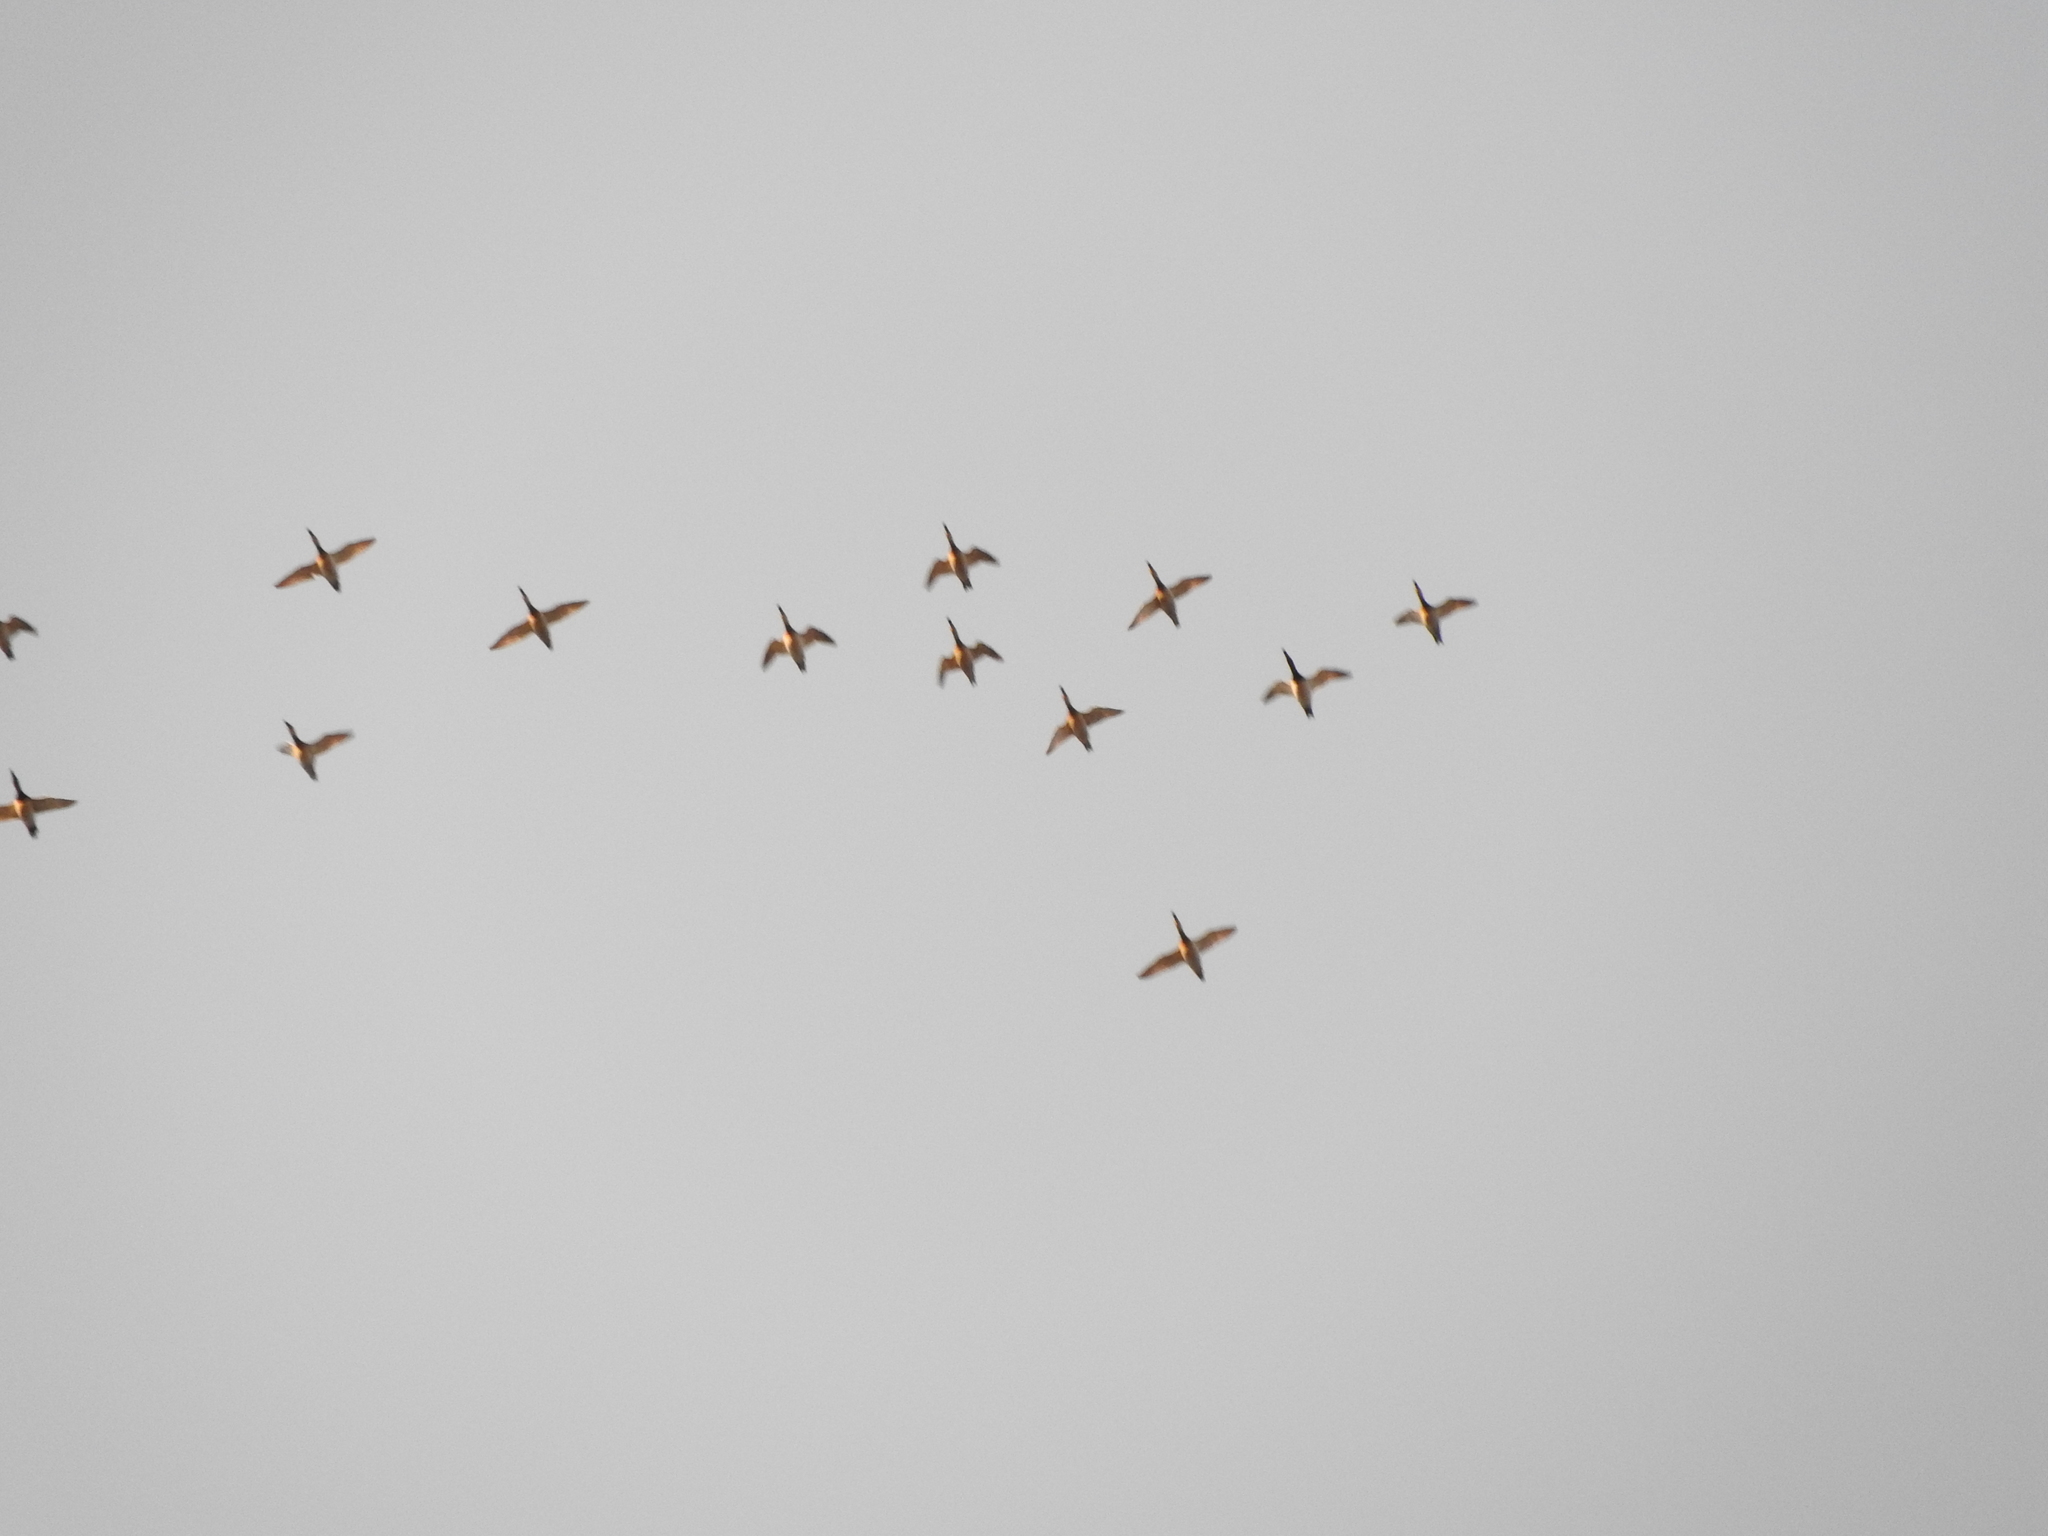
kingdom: Animalia
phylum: Chordata
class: Aves
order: Anseriformes
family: Anatidae
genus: Aythya
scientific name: Aythya valisineria
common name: Canvasback
